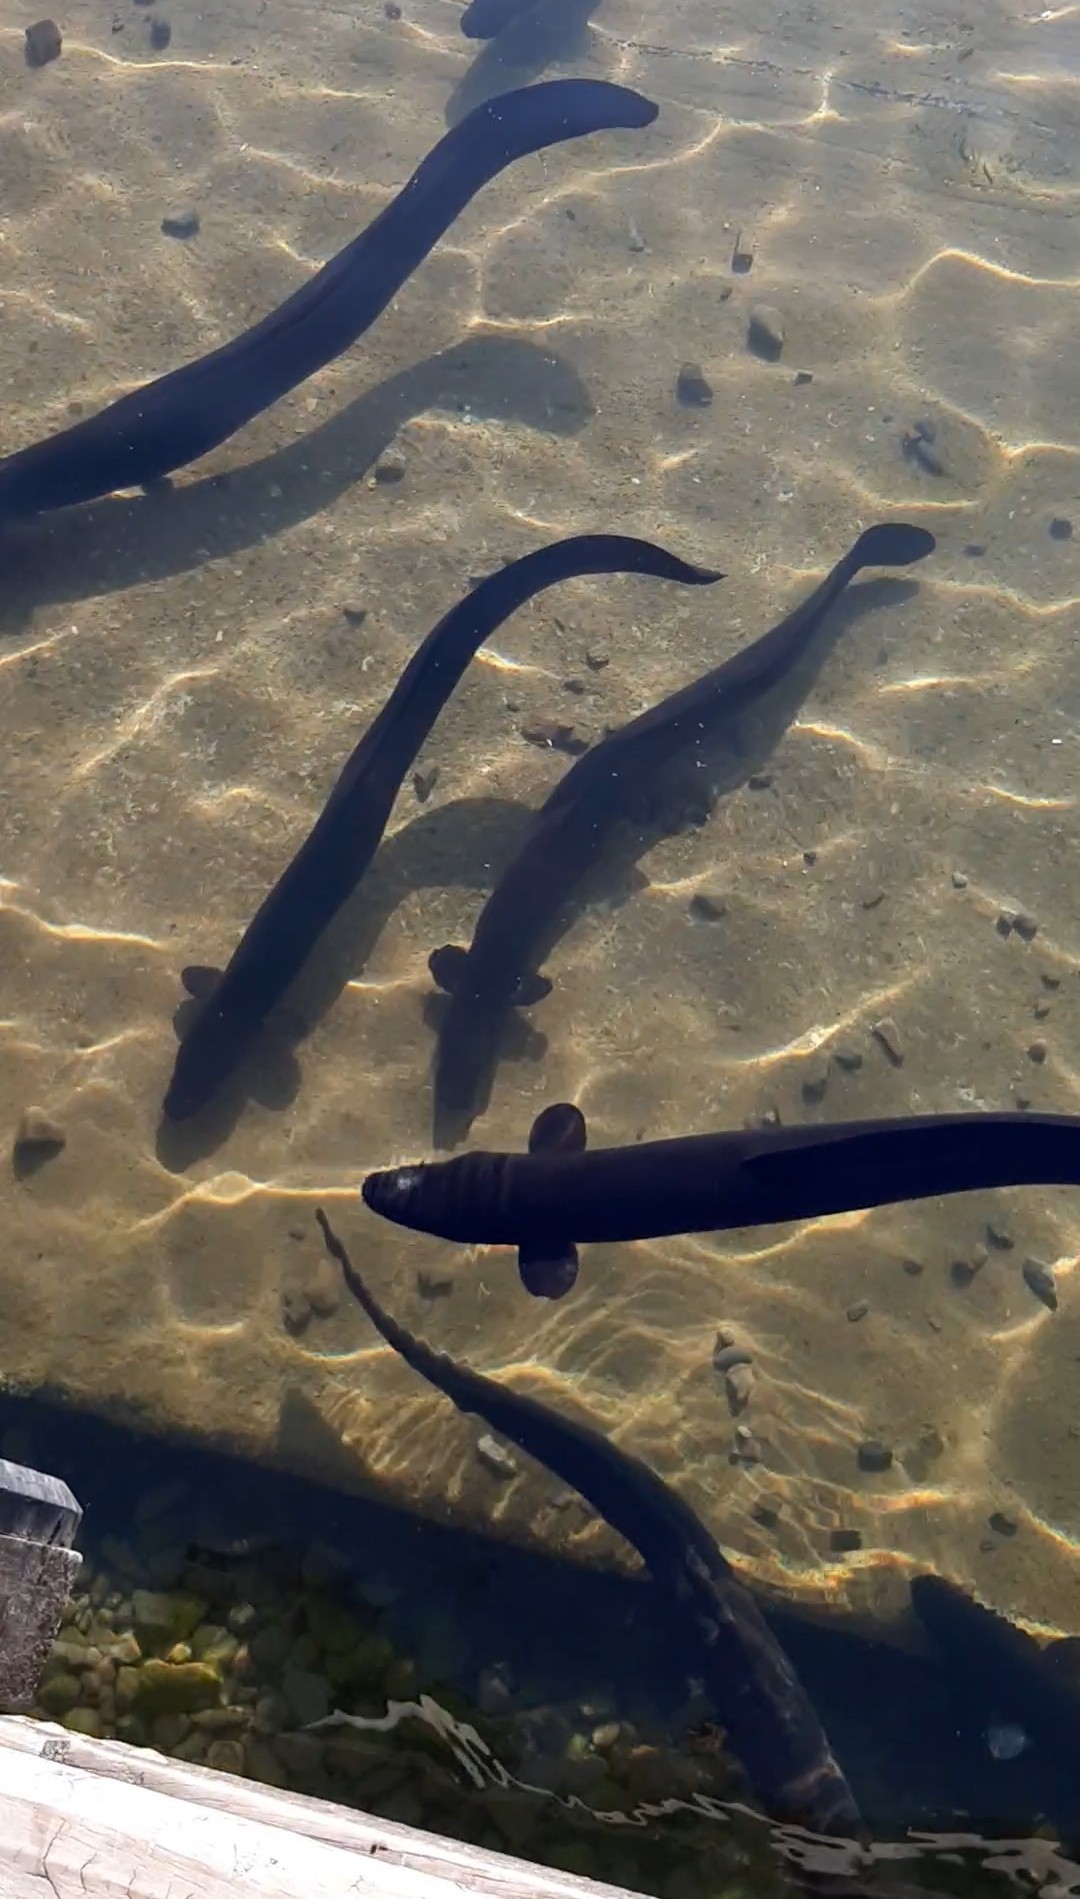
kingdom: Animalia
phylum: Chordata
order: Anguilliformes
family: Anguillidae
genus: Anguilla
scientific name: Anguilla dieffenbachii
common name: New zealand longfin eel
